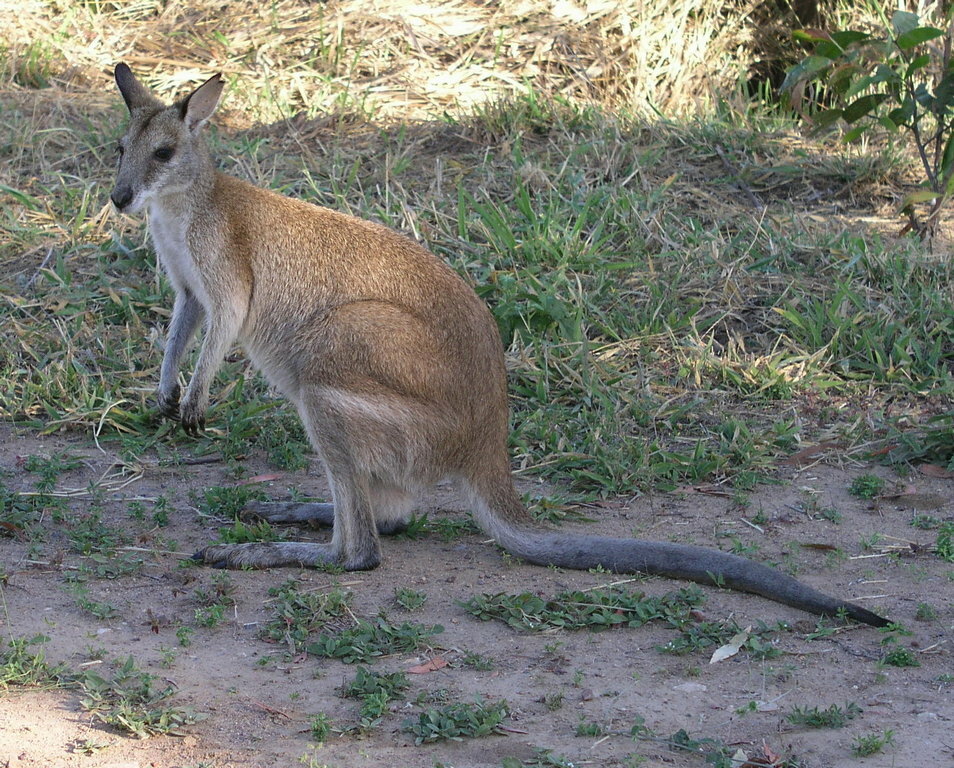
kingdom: Animalia
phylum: Chordata
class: Mammalia
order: Diprotodontia
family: Macropodidae
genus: Macropus
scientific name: Macropus agilis
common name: Agile wallaby
